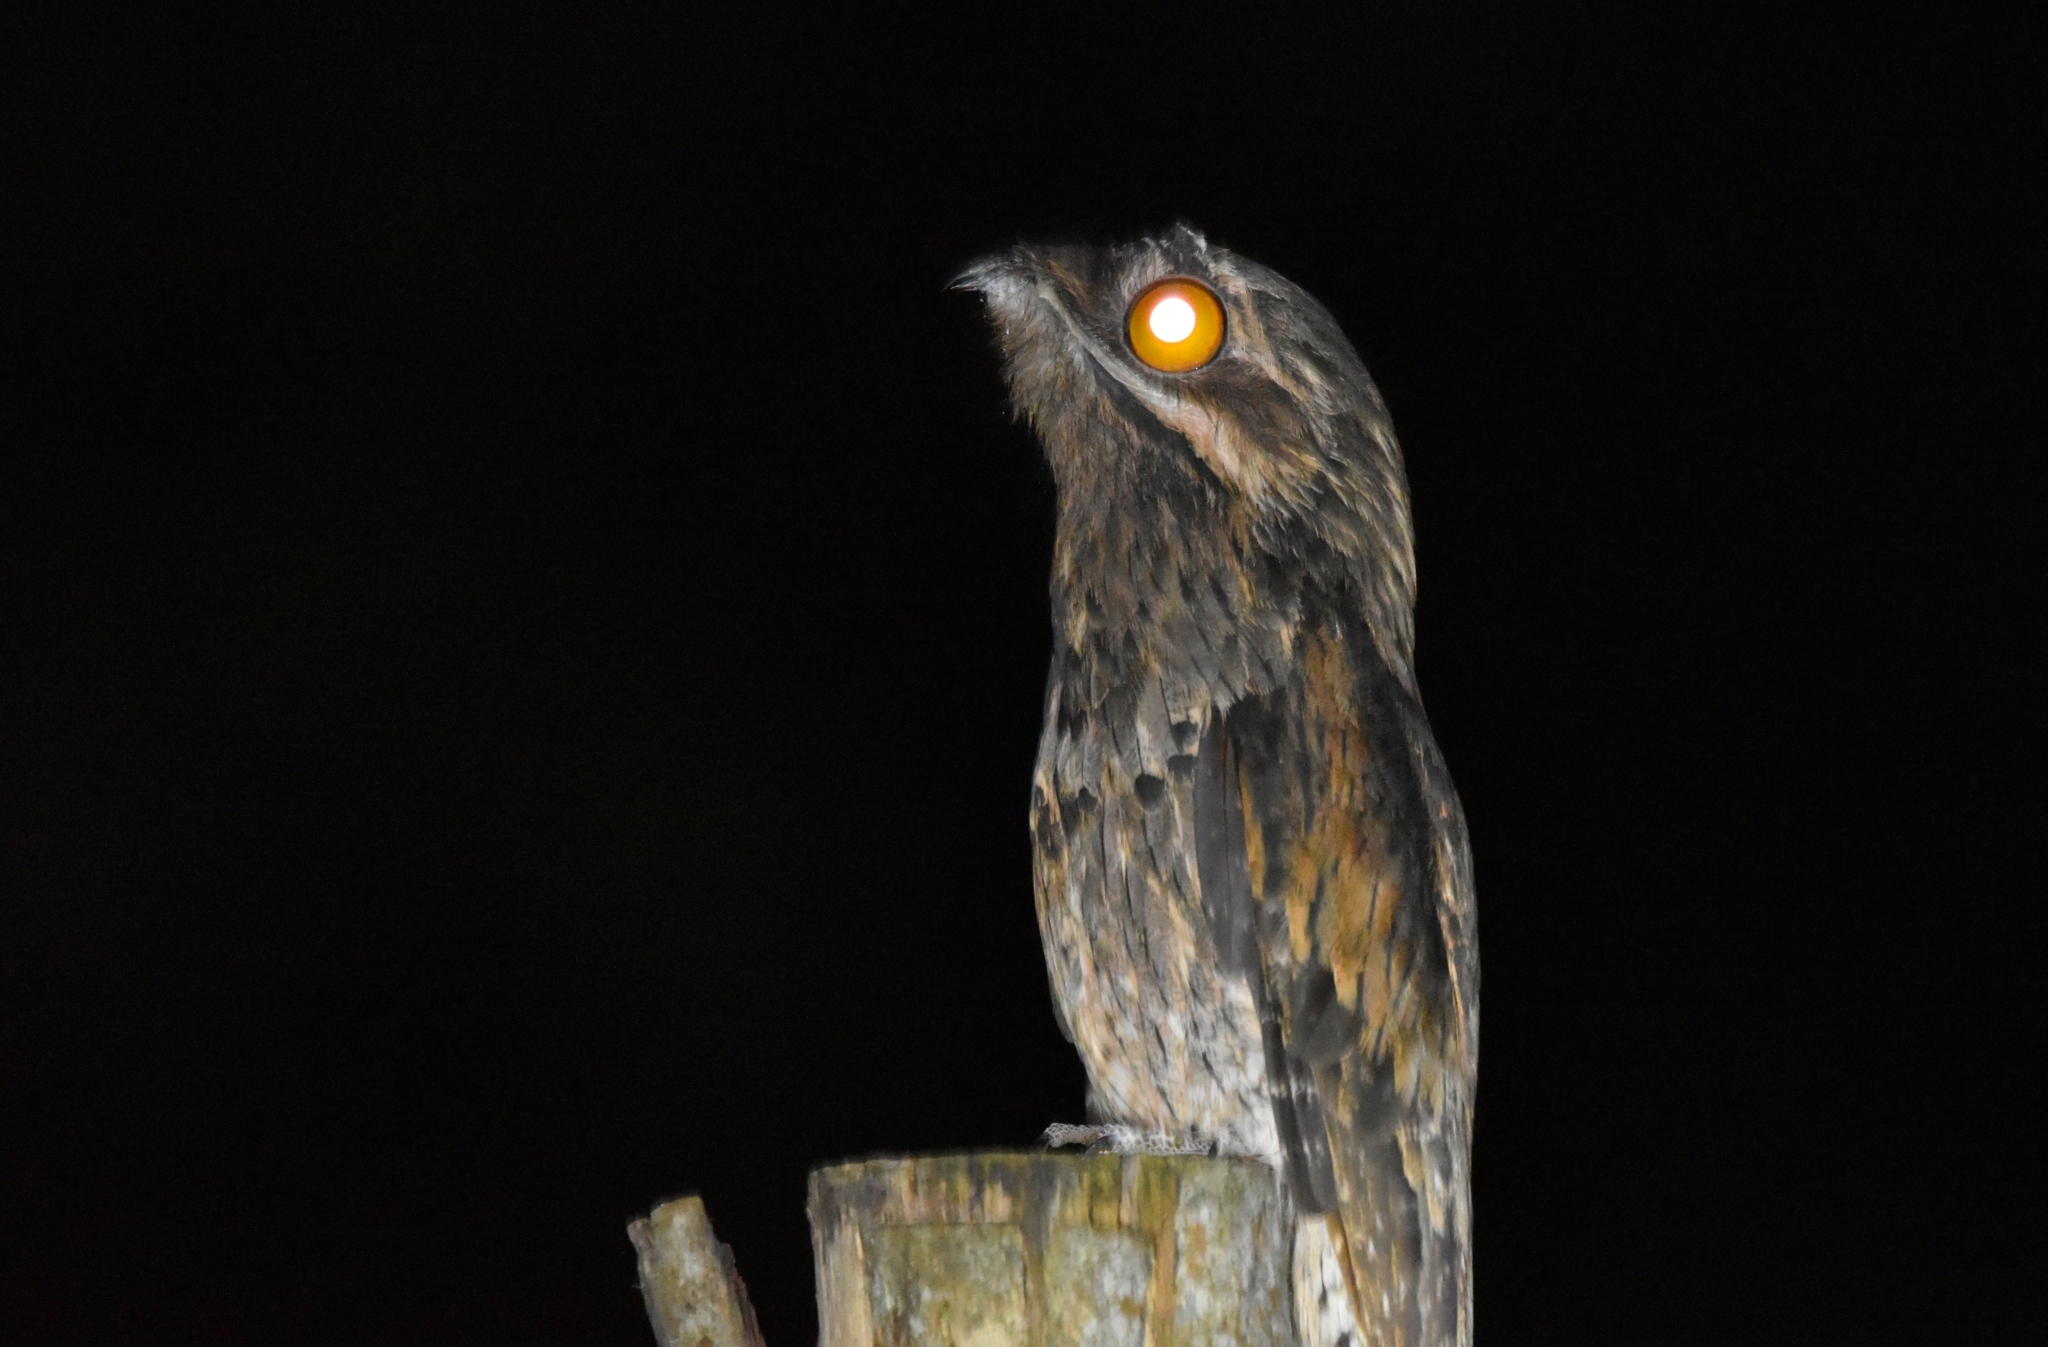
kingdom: Animalia
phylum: Chordata
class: Aves
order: Nyctibiiformes
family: Nyctibiidae
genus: Nyctibius
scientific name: Nyctibius griseus
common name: Common potoo
